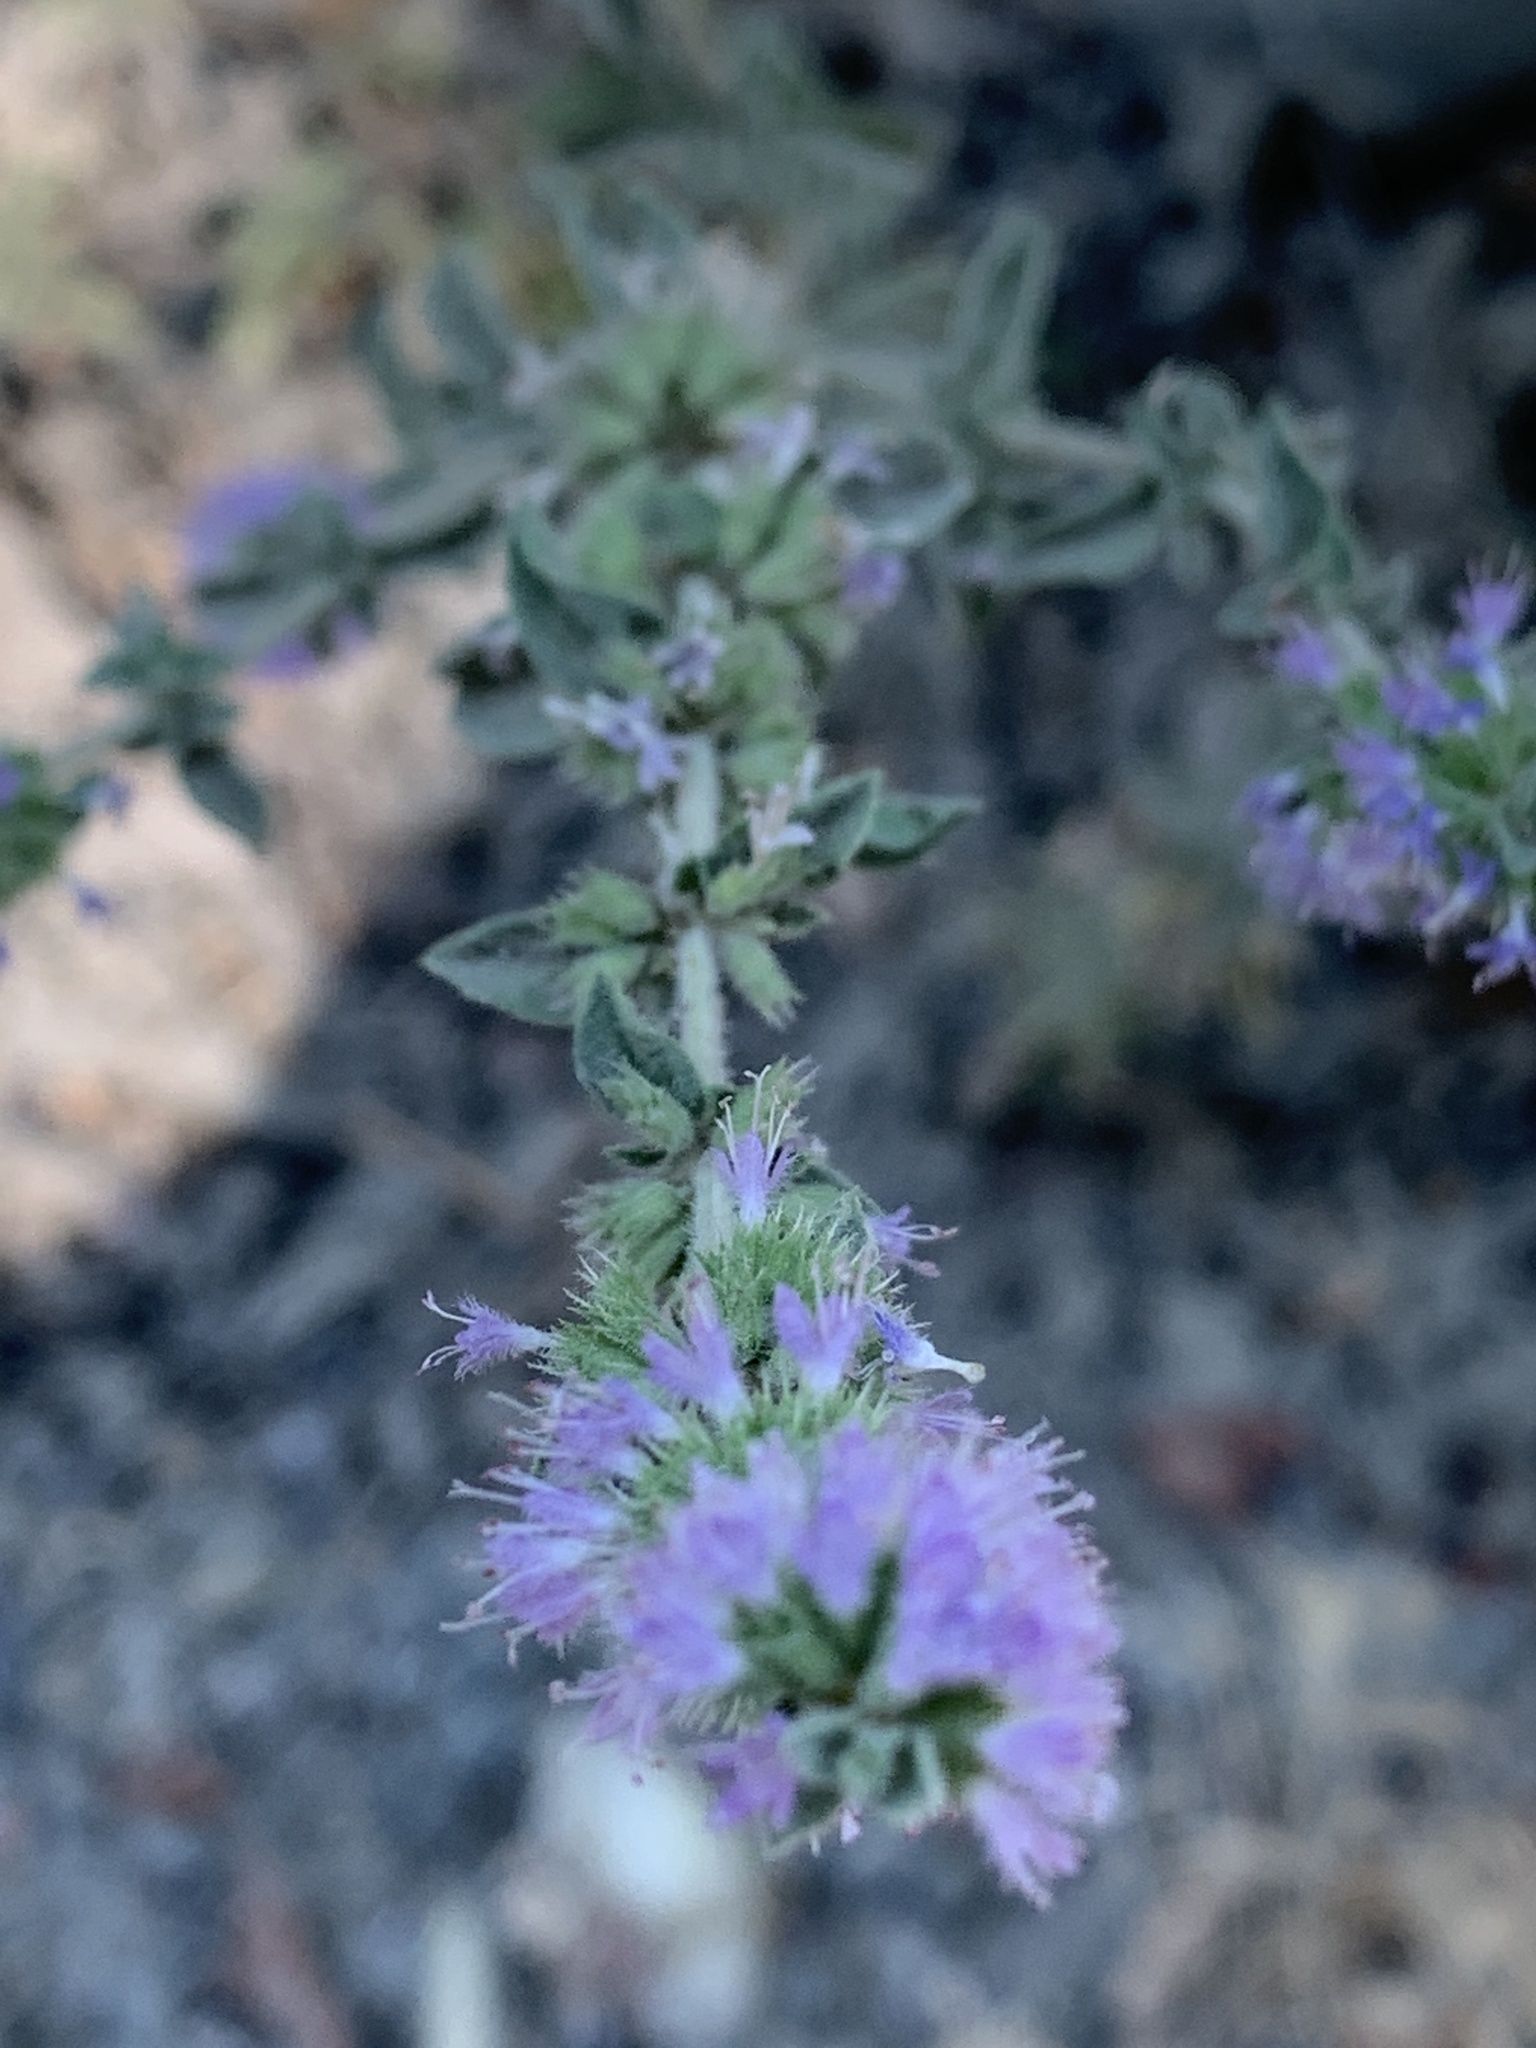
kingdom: Plantae
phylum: Tracheophyta
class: Magnoliopsida
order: Lamiales
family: Lamiaceae
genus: Mentha
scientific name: Mentha pulegium
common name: Pennyroyal
